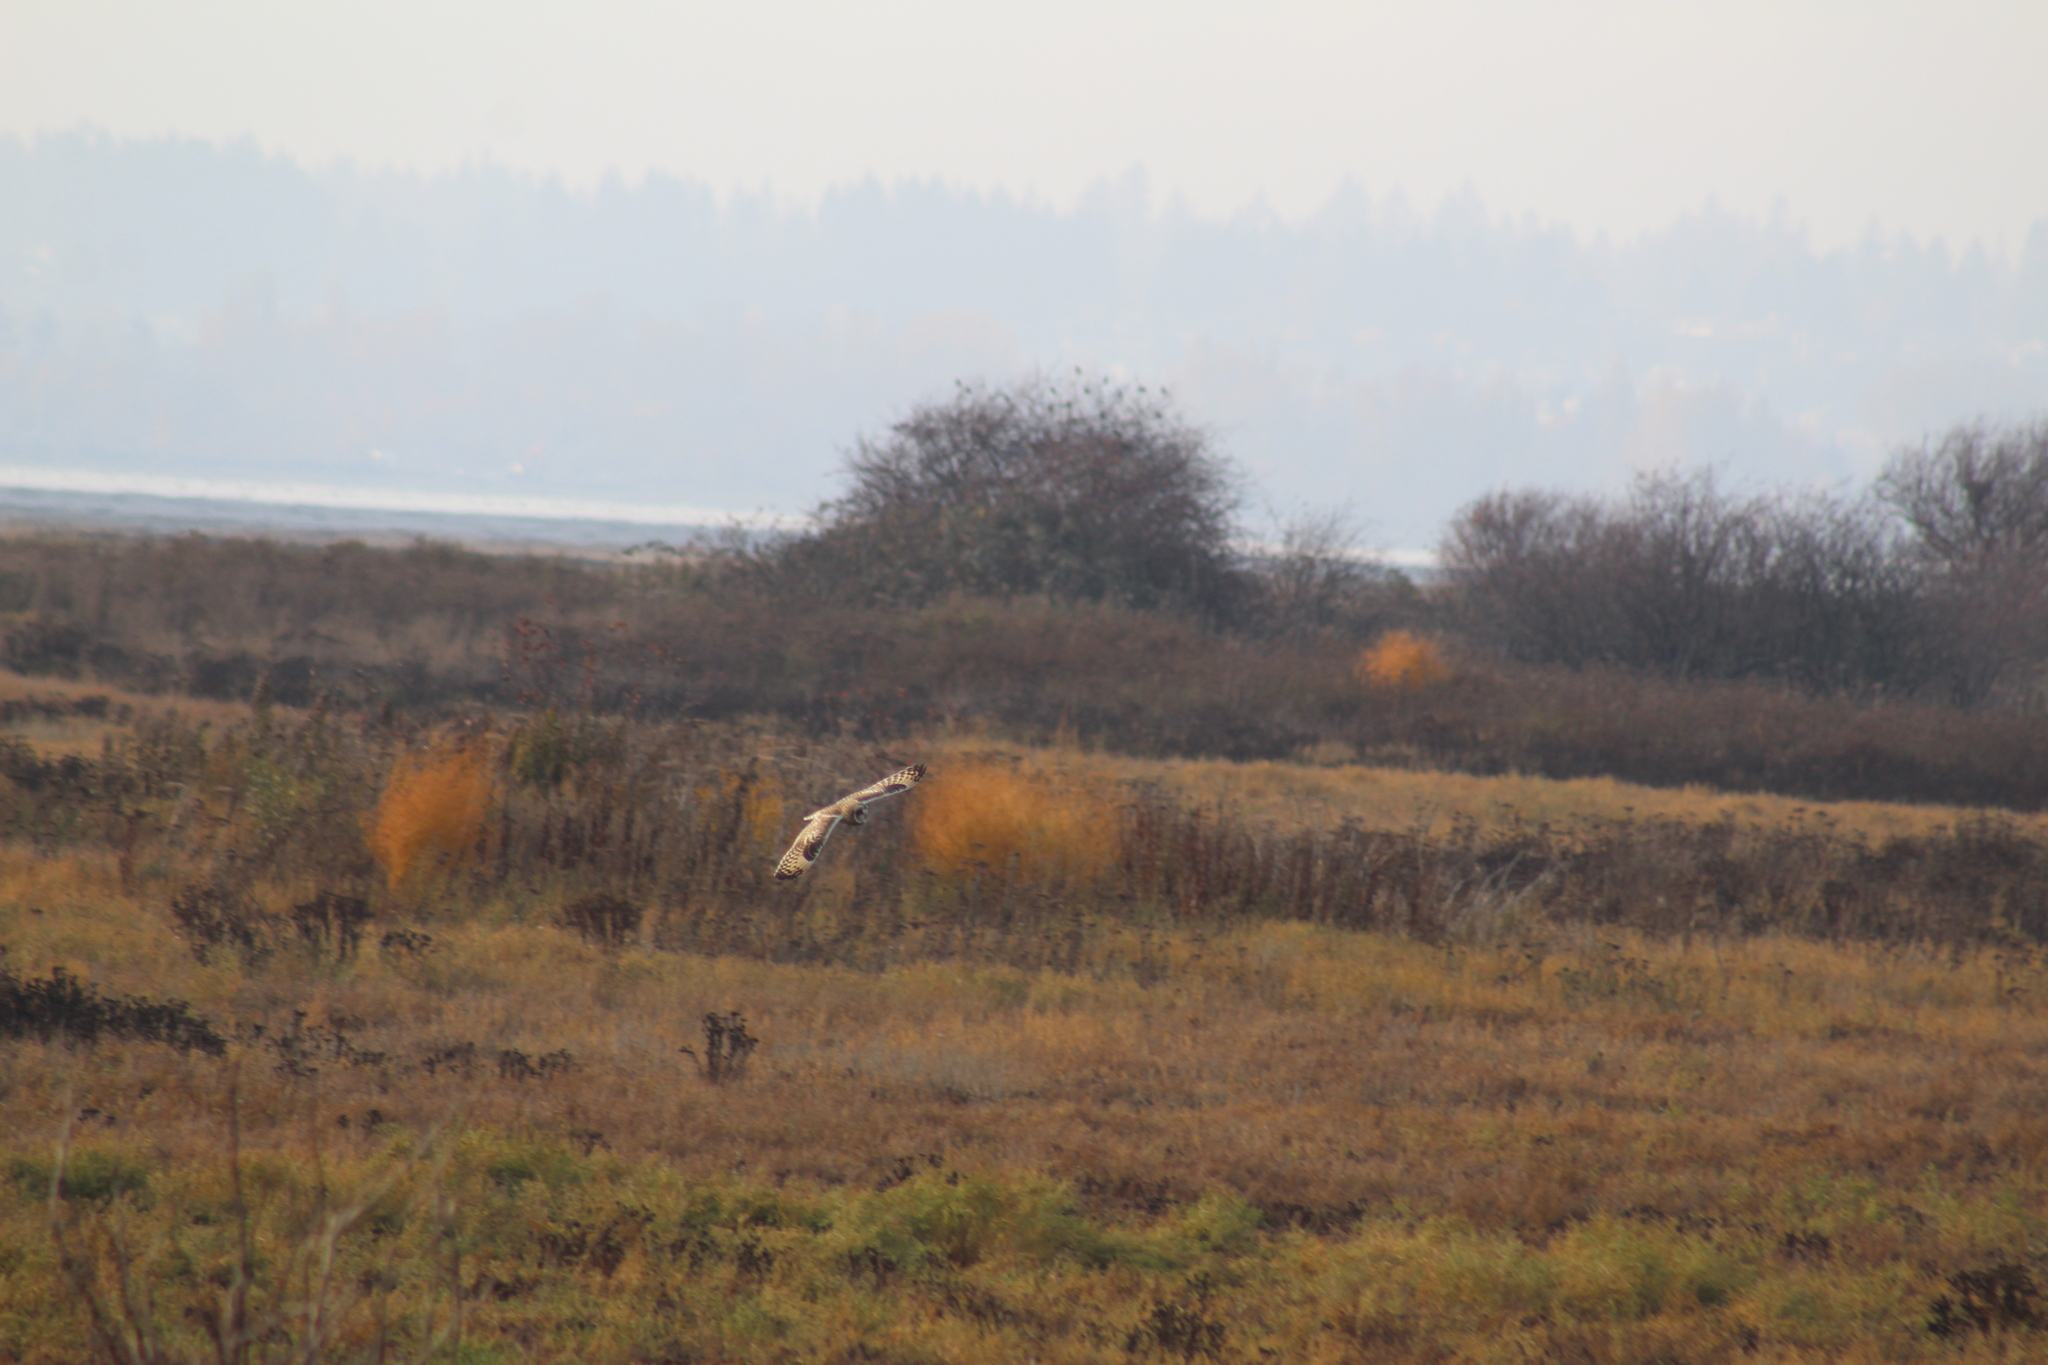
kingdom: Animalia
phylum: Chordata
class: Aves
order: Strigiformes
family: Strigidae
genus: Asio
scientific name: Asio flammeus
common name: Short-eared owl
